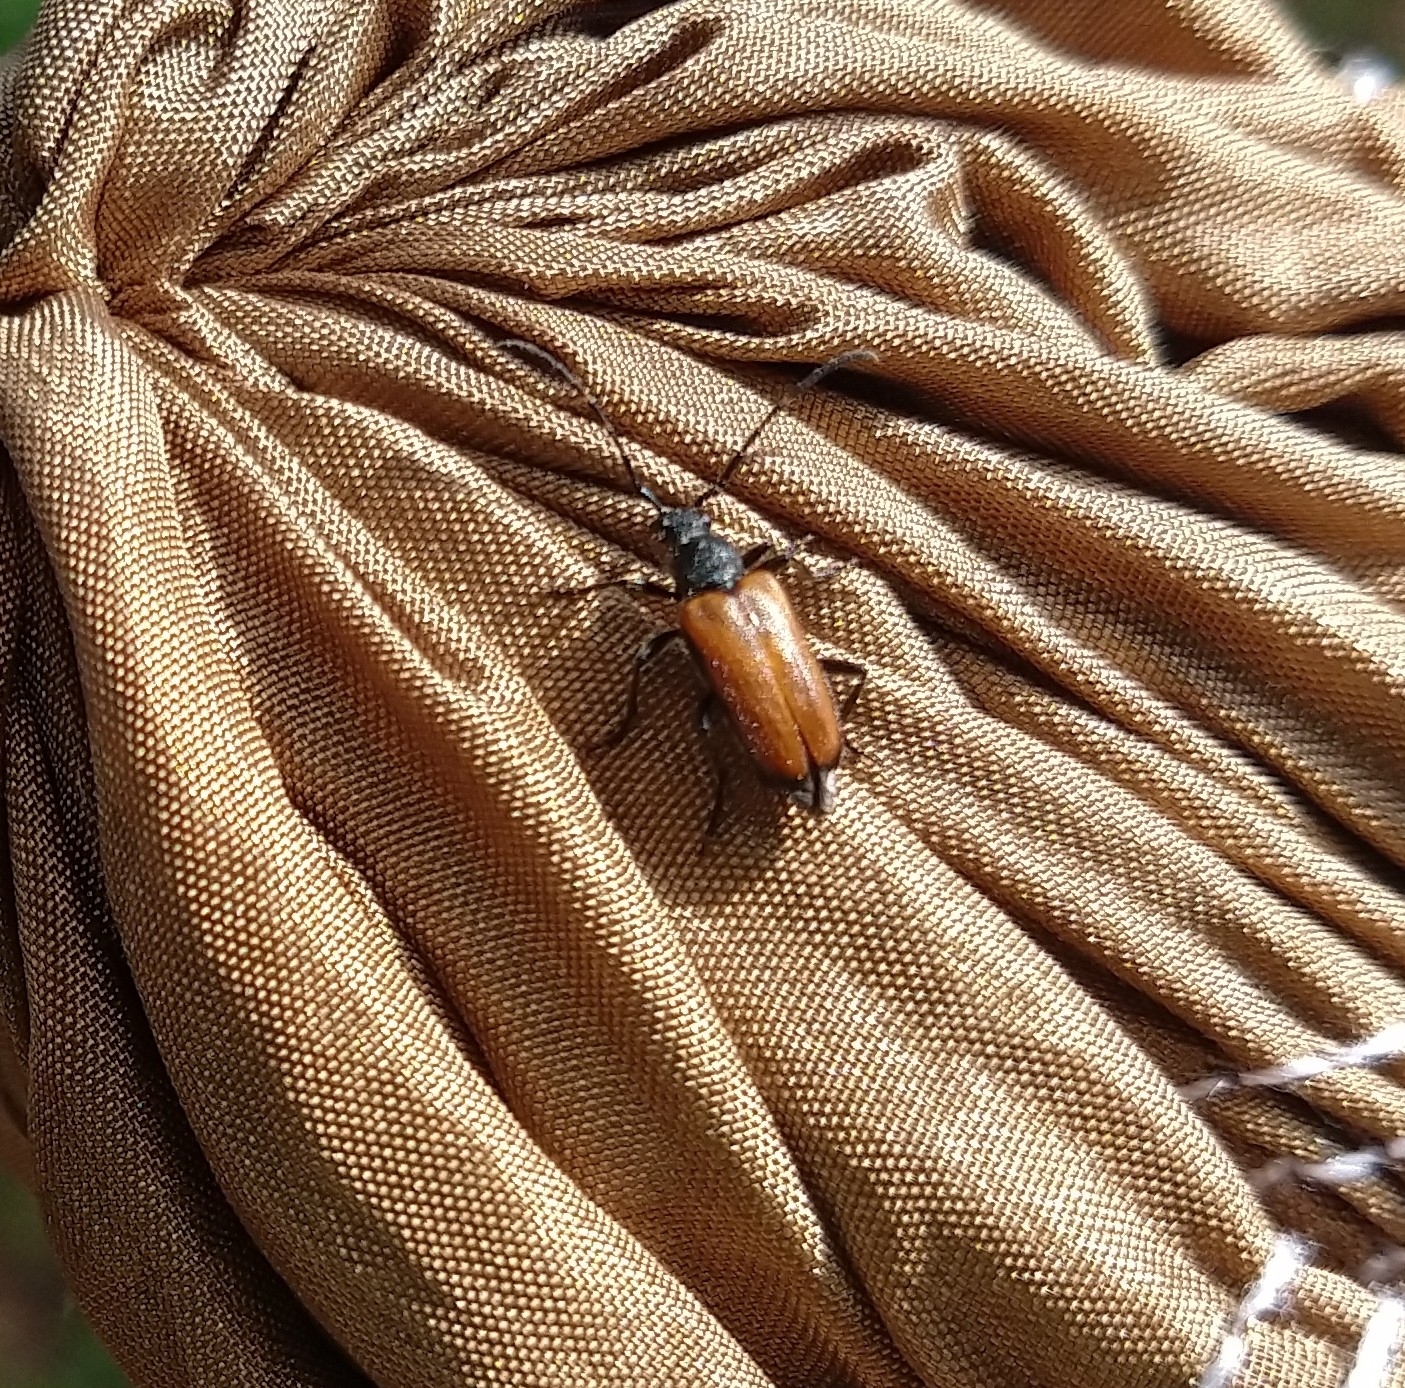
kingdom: Animalia
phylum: Arthropoda
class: Insecta
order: Coleoptera
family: Cerambycidae
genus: Paracorymbia
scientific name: Paracorymbia maculicornis
